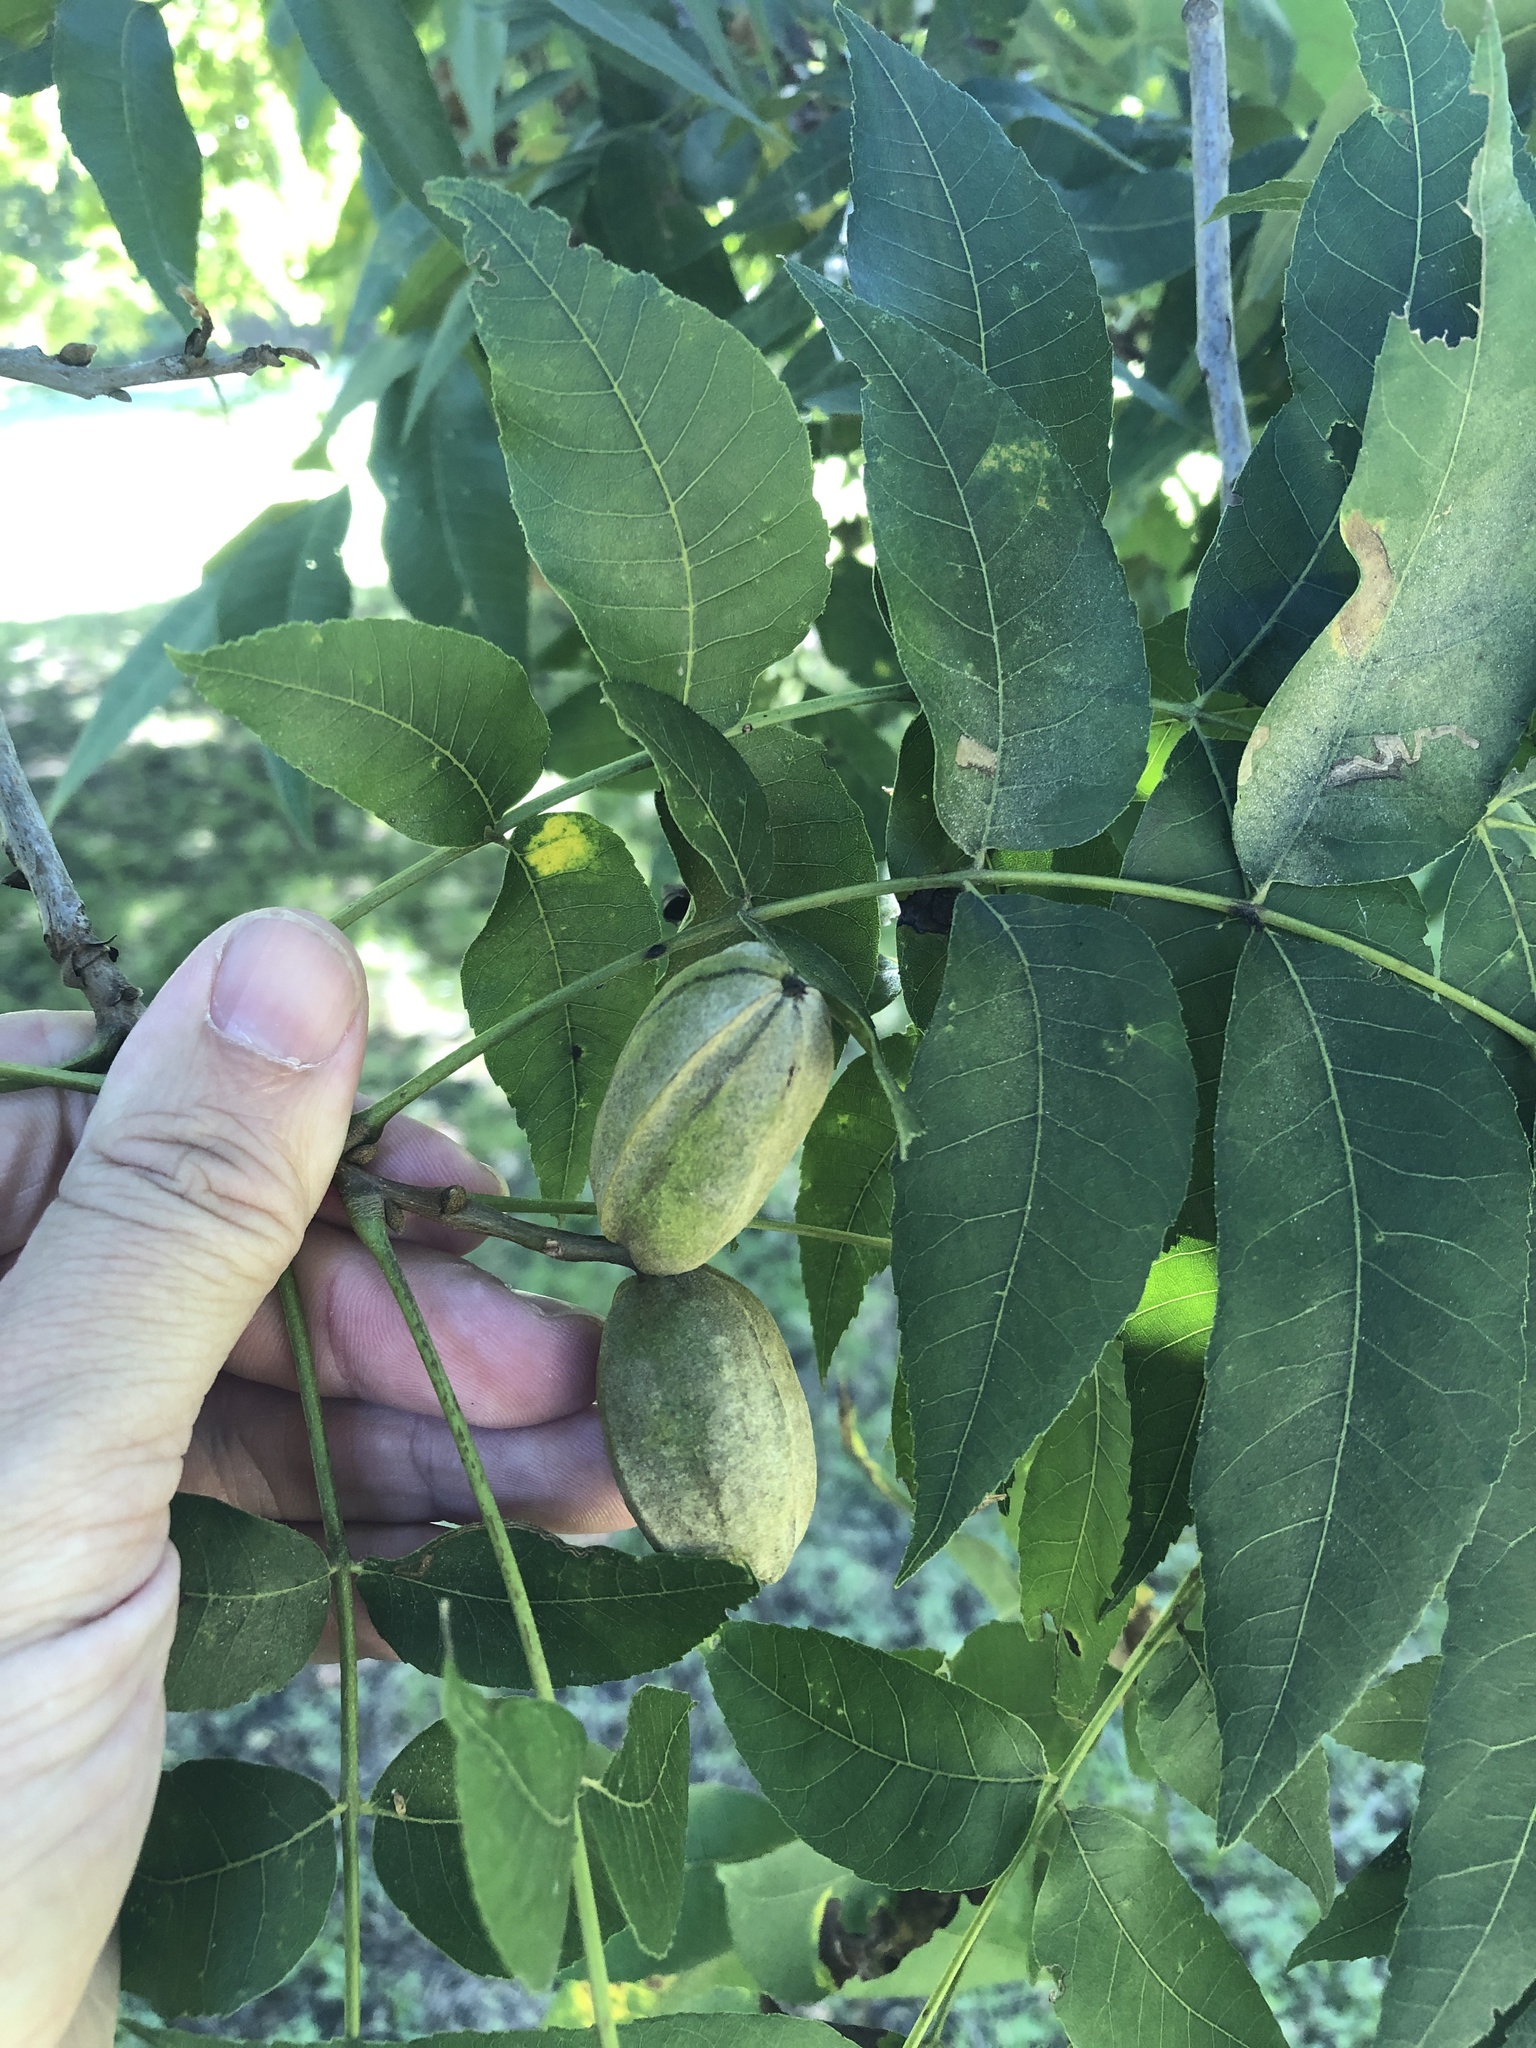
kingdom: Plantae
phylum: Tracheophyta
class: Magnoliopsida
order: Fagales
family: Juglandaceae
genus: Carya
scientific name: Carya illinoinensis
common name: Pecan
